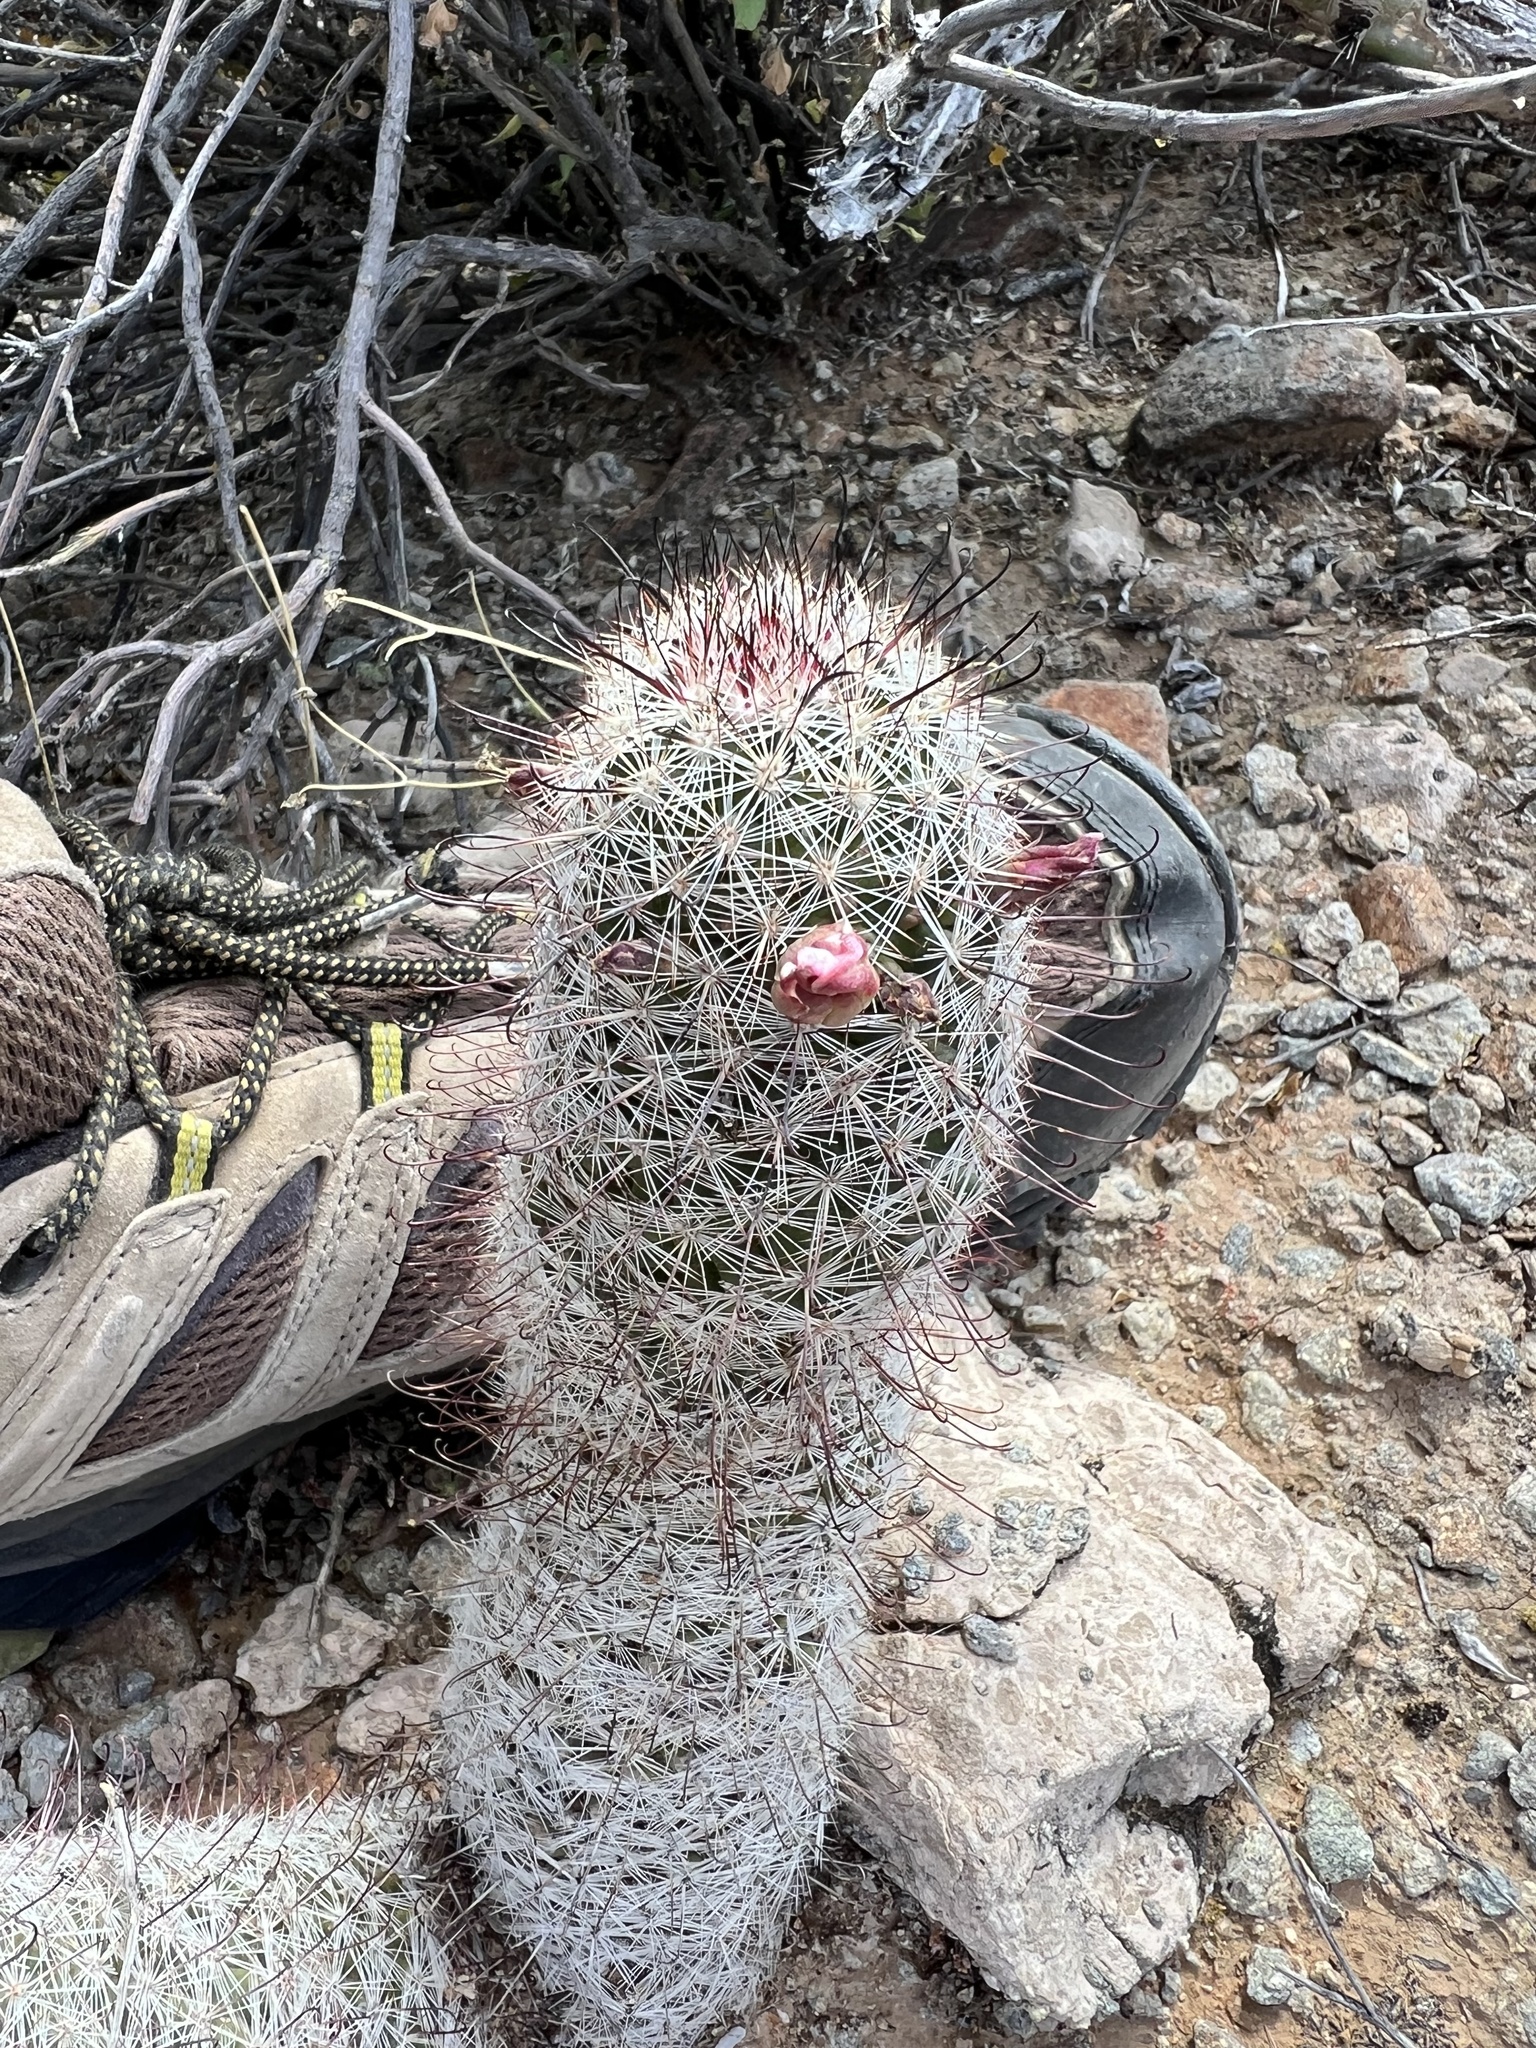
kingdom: Plantae
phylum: Tracheophyta
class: Magnoliopsida
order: Caryophyllales
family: Cactaceae
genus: Cochemiea
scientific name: Cochemiea grahamii
